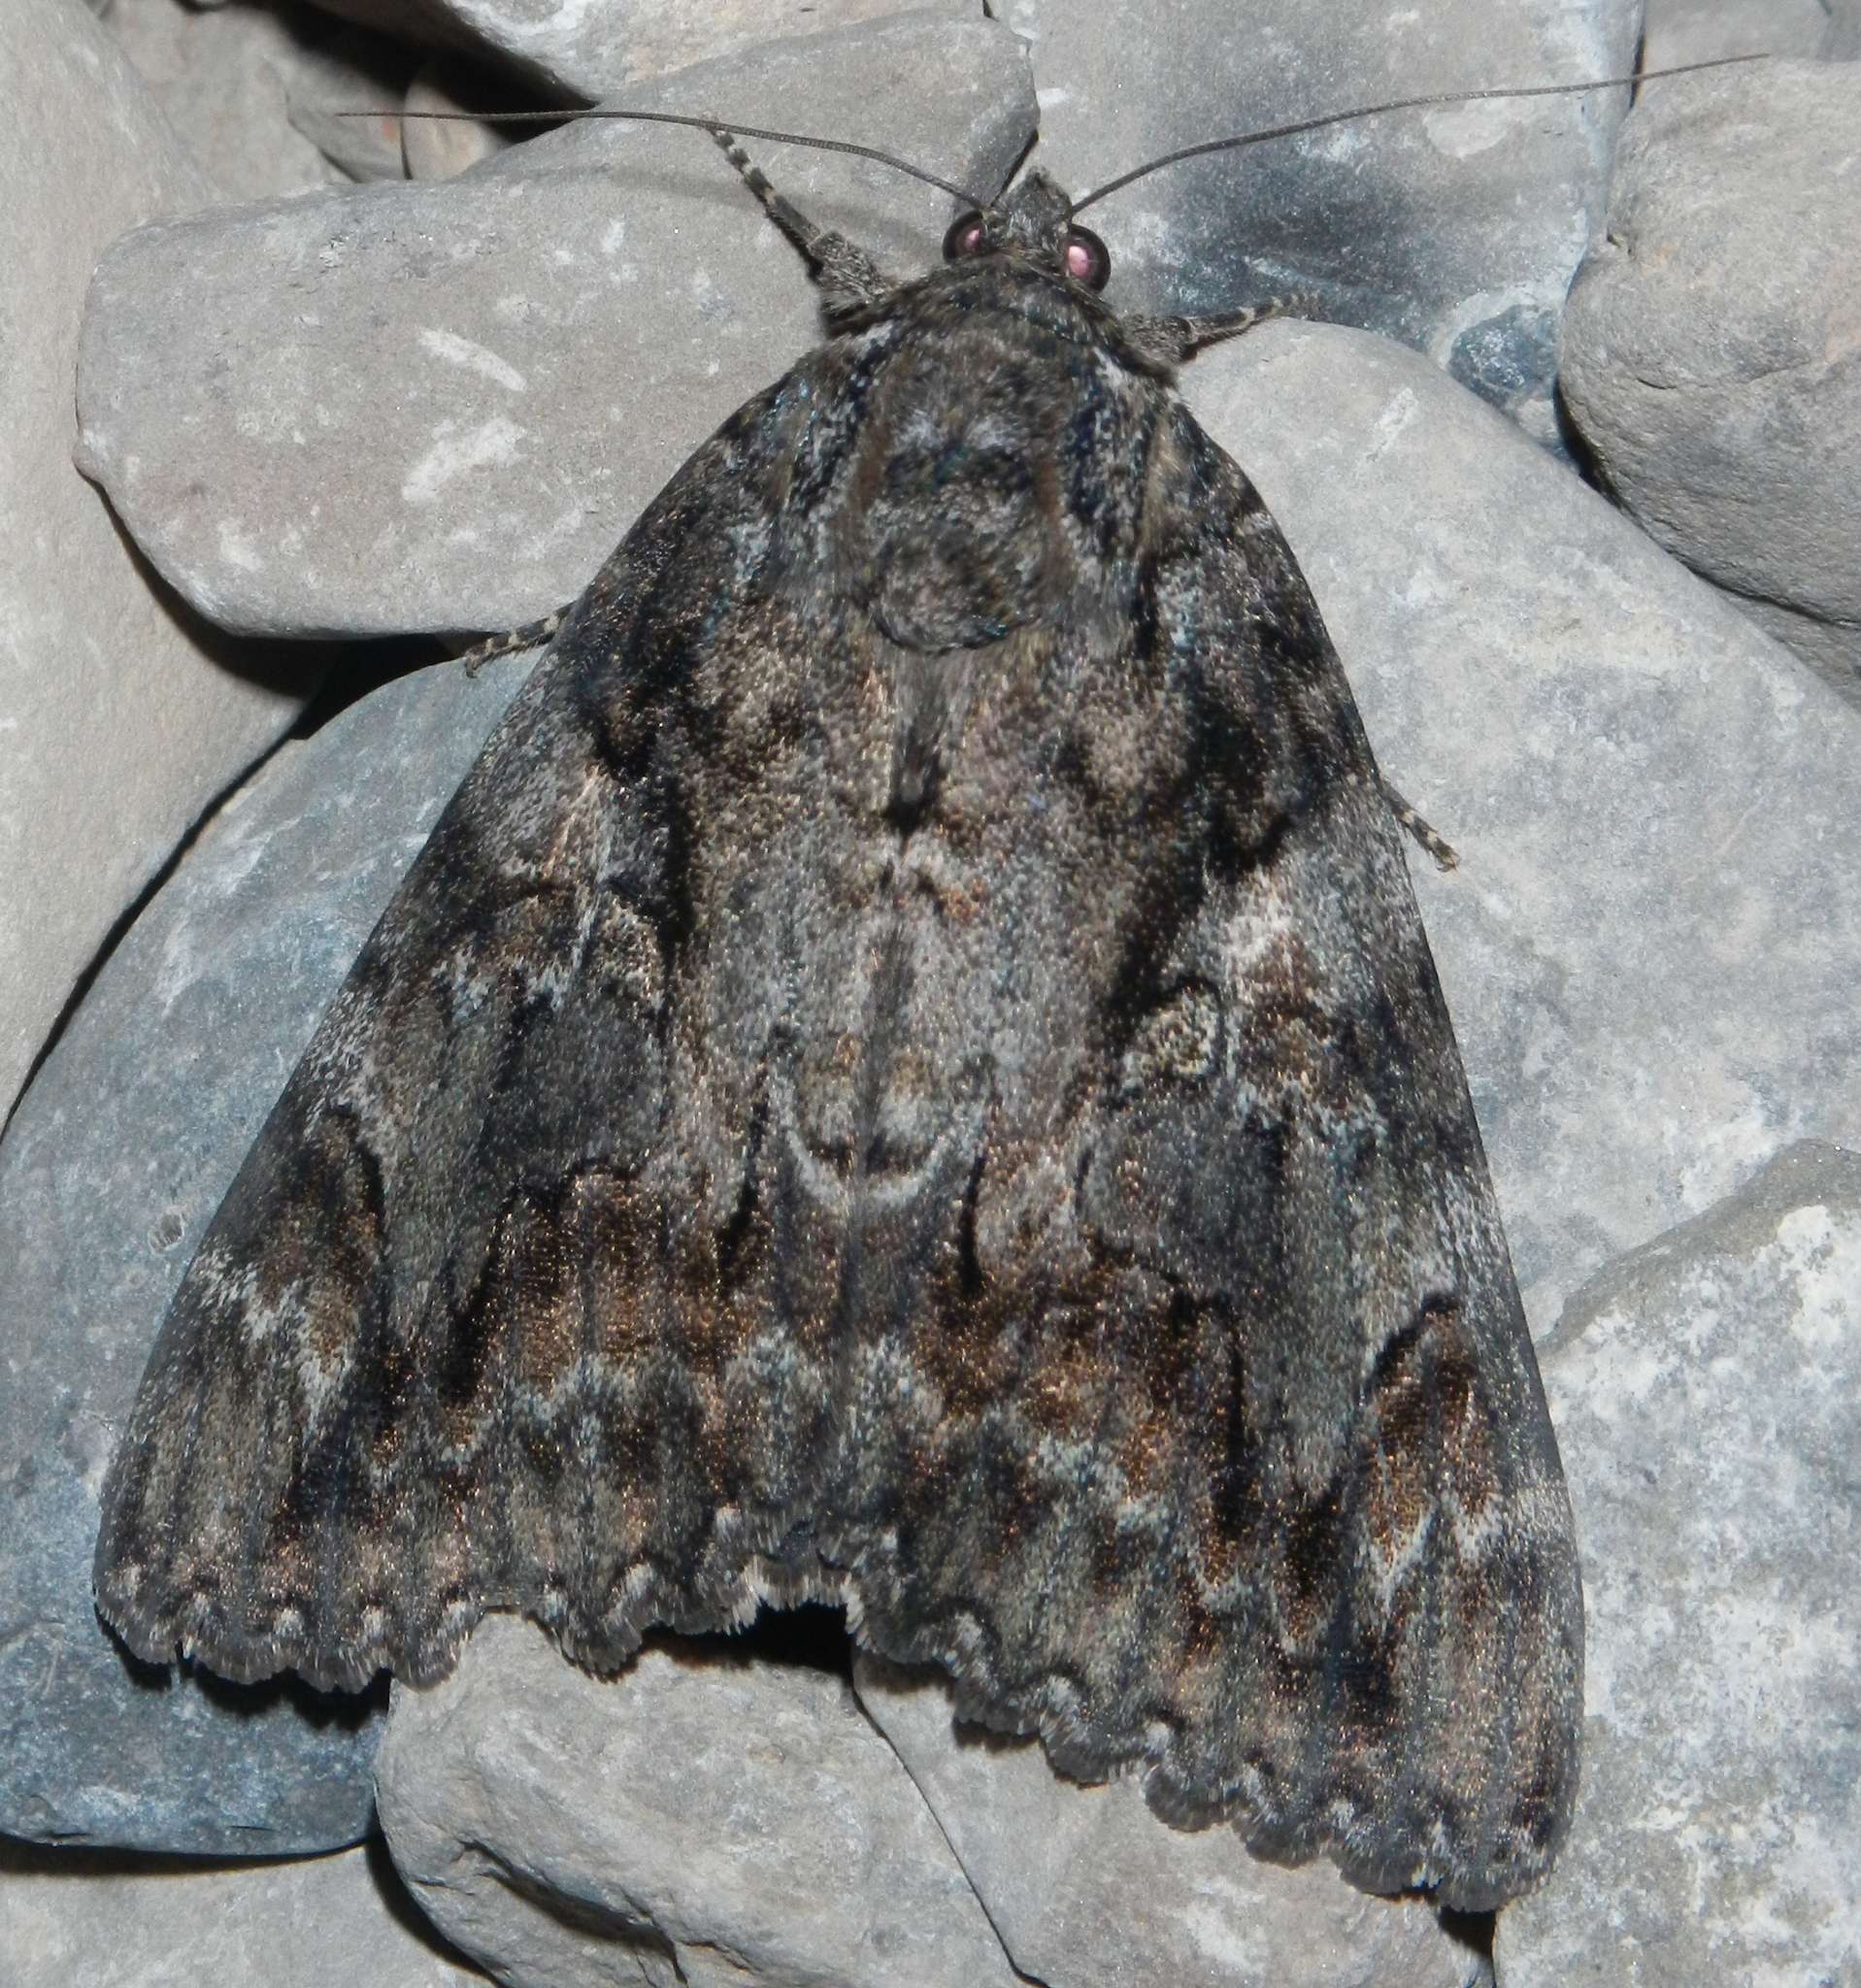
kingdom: Animalia
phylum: Arthropoda
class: Insecta
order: Lepidoptera
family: Erebidae
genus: Catocala
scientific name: Catocala aholibah
